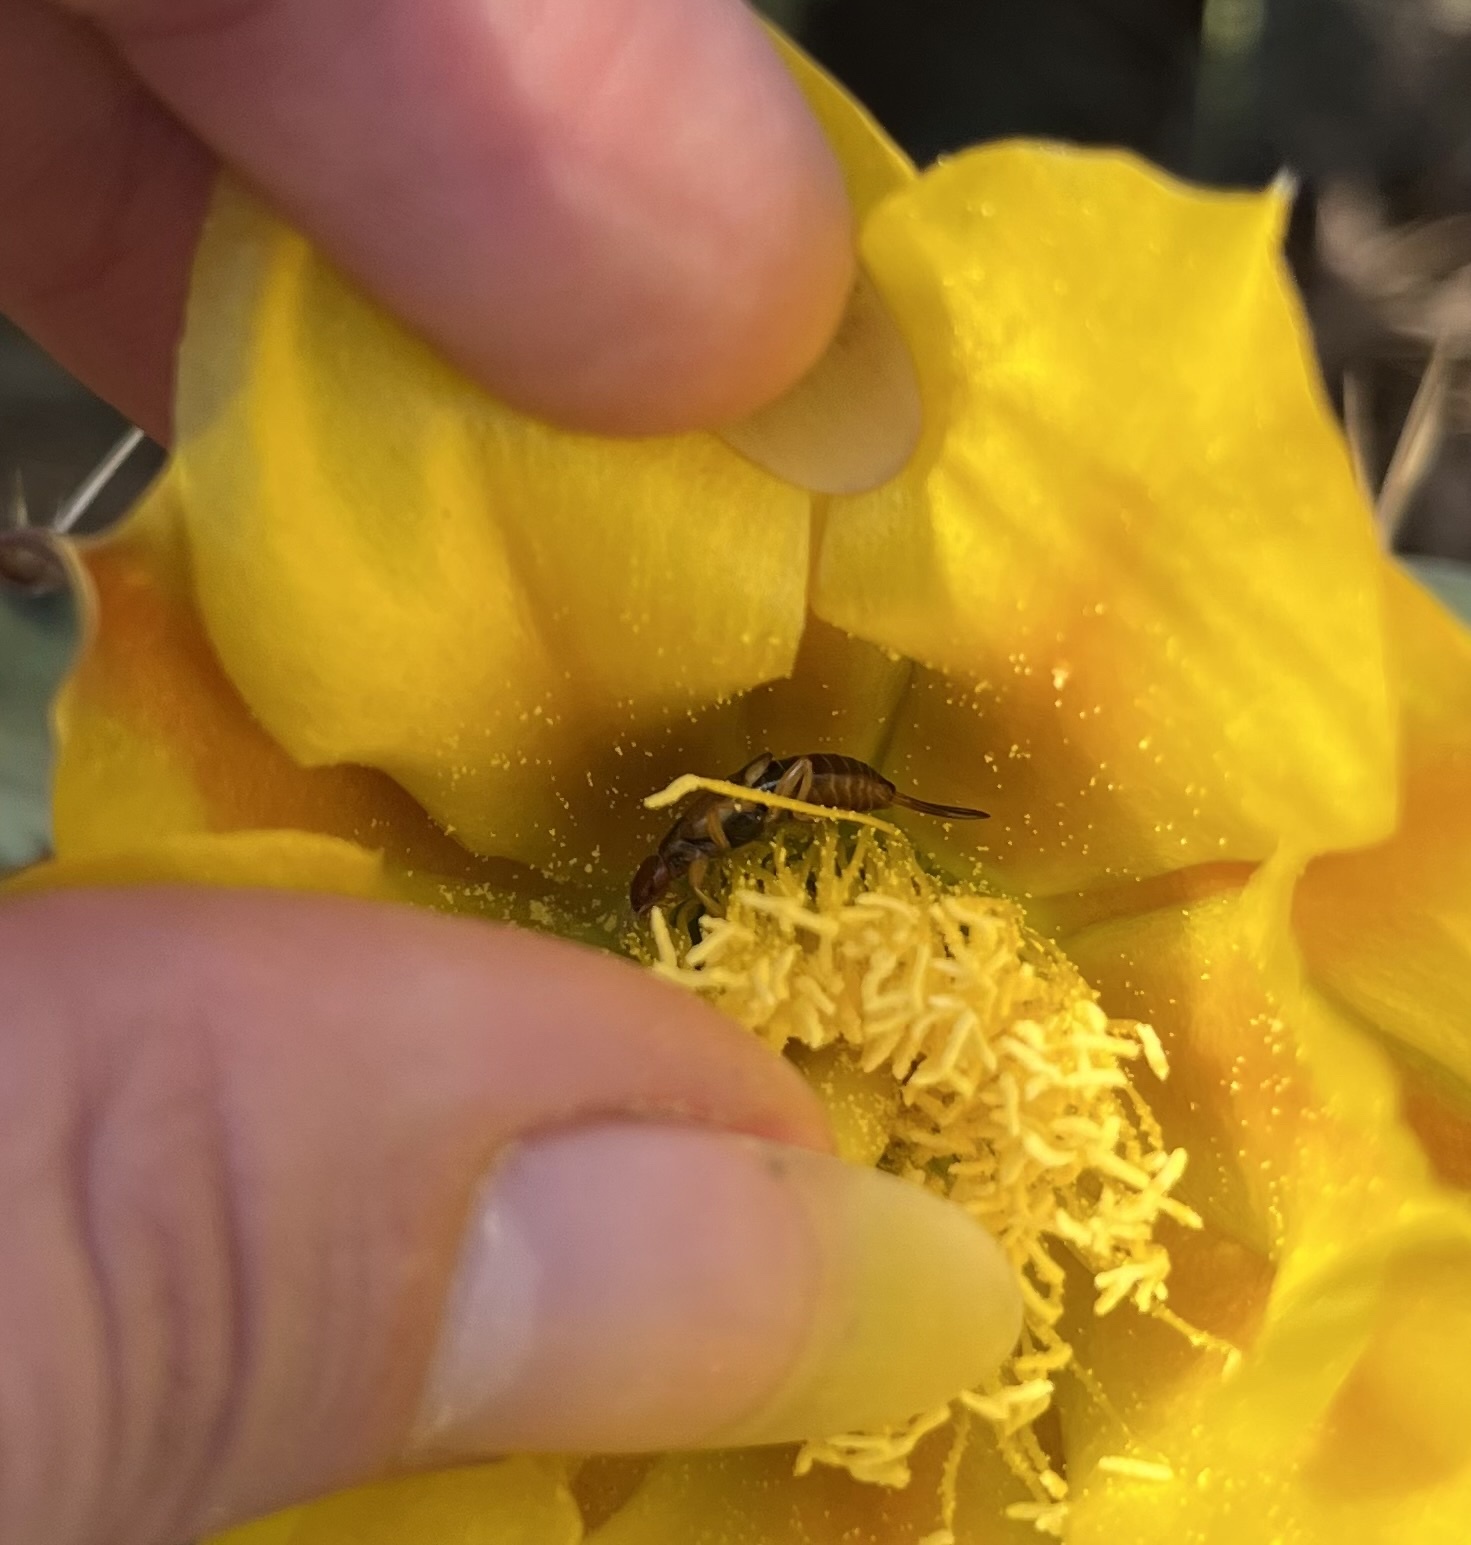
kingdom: Animalia
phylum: Arthropoda
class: Insecta
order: Dermaptera
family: Forficulidae
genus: Forficula
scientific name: Forficula dentata
